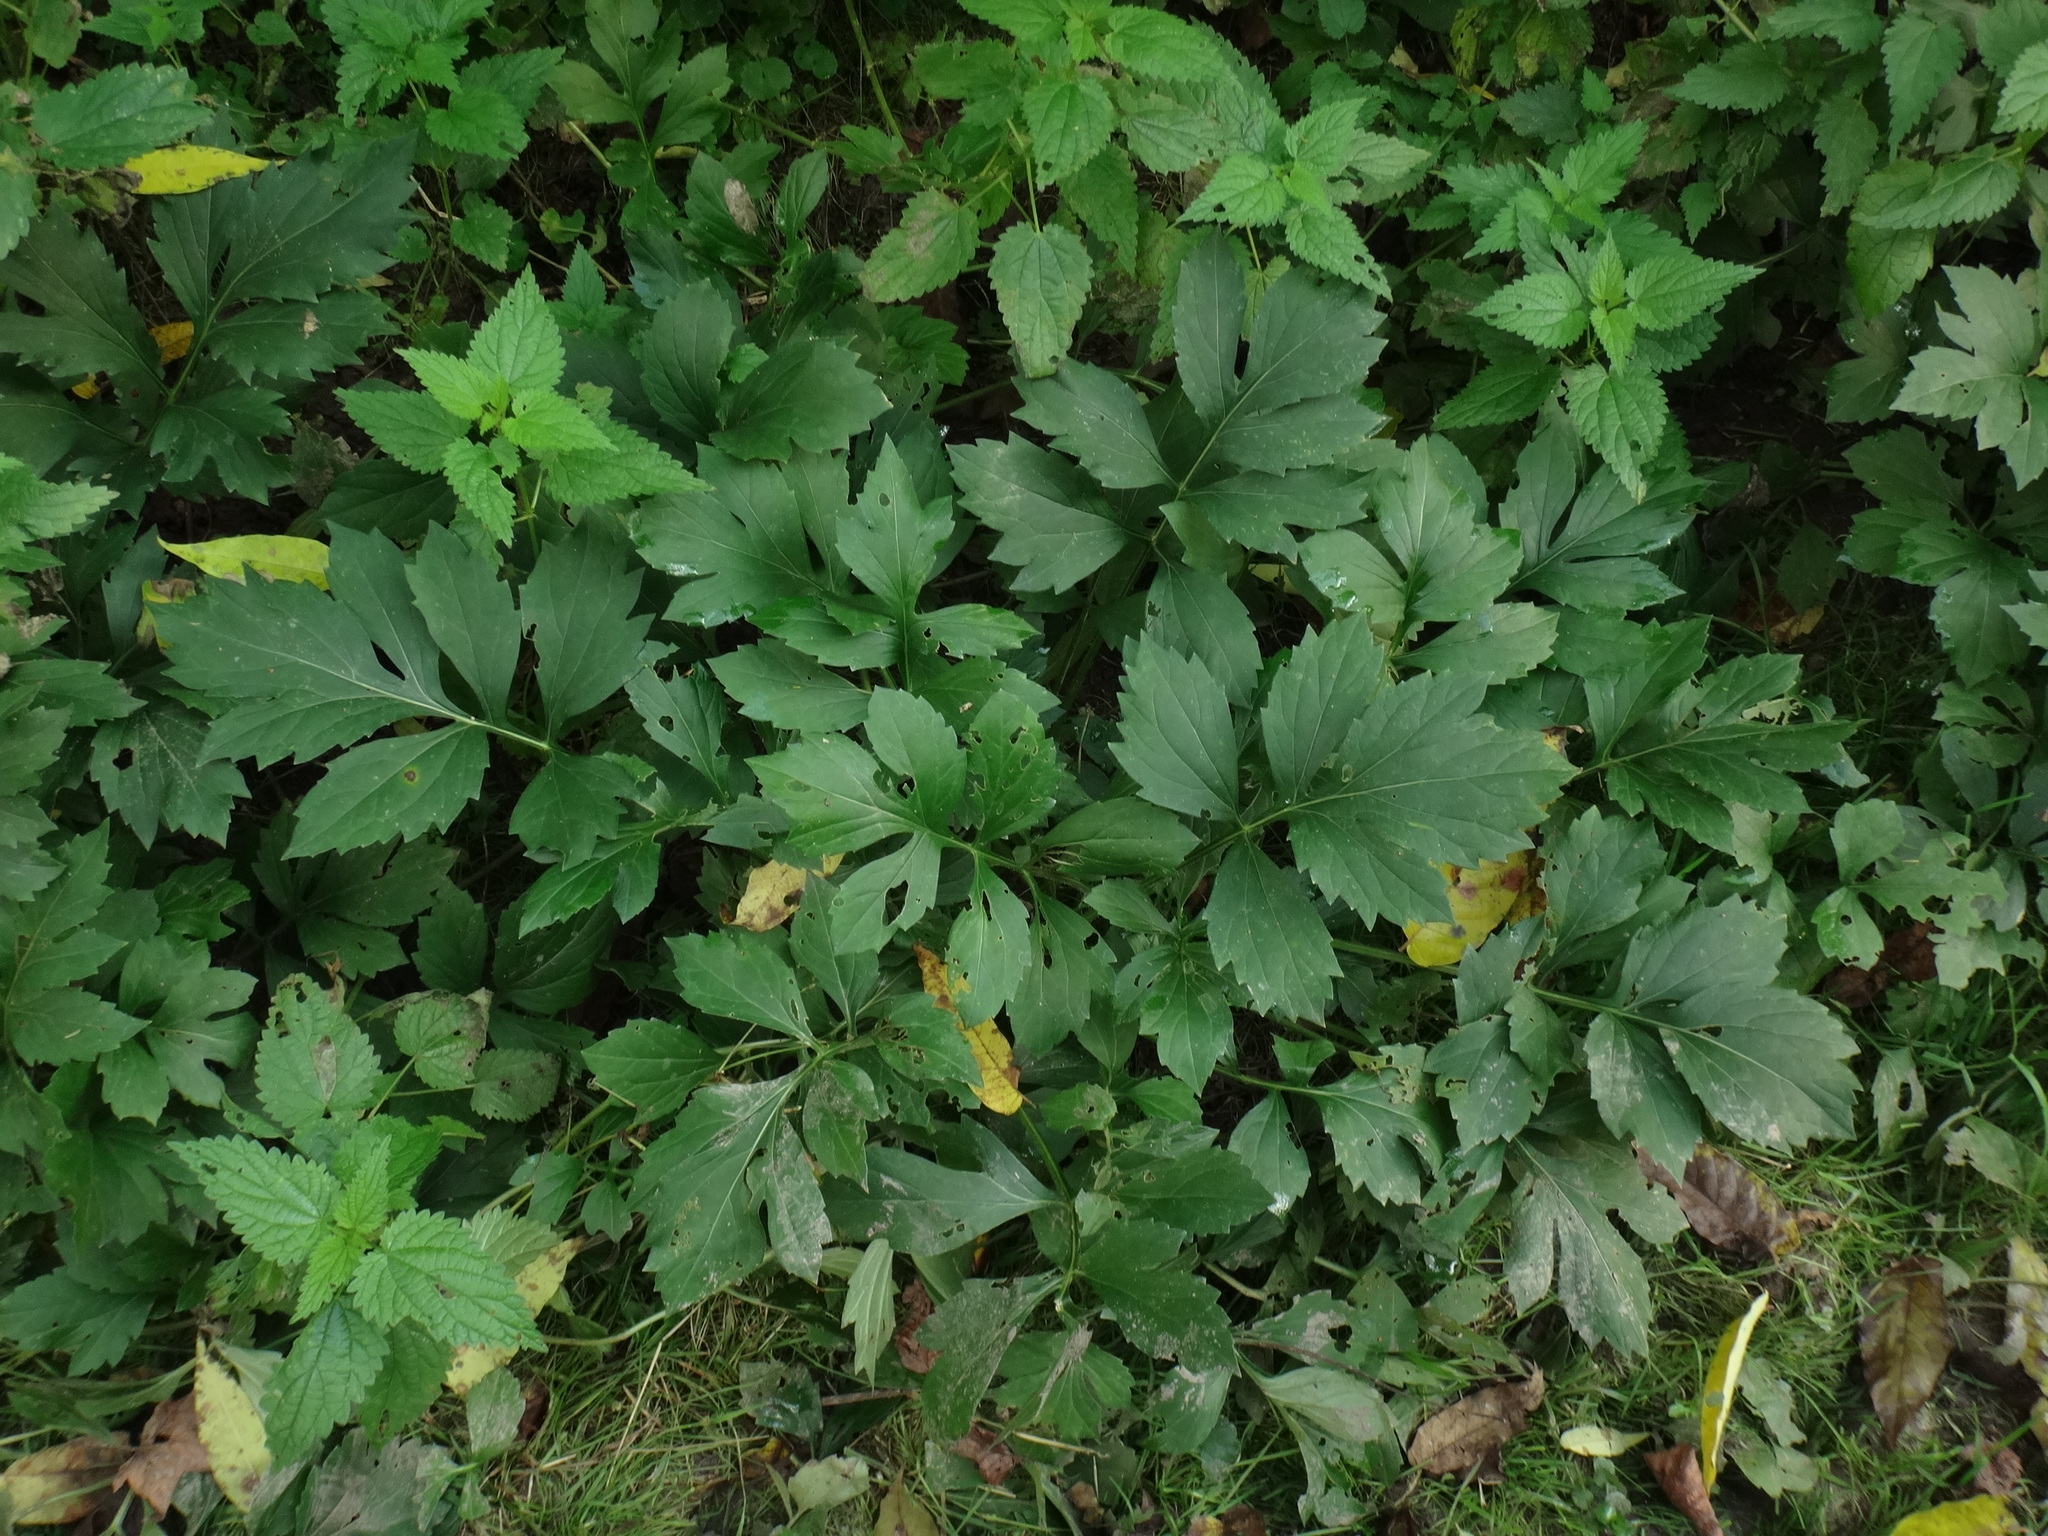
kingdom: Plantae
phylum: Tracheophyta
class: Magnoliopsida
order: Asterales
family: Asteraceae
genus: Rudbeckia
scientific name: Rudbeckia laciniata
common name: Coneflower
